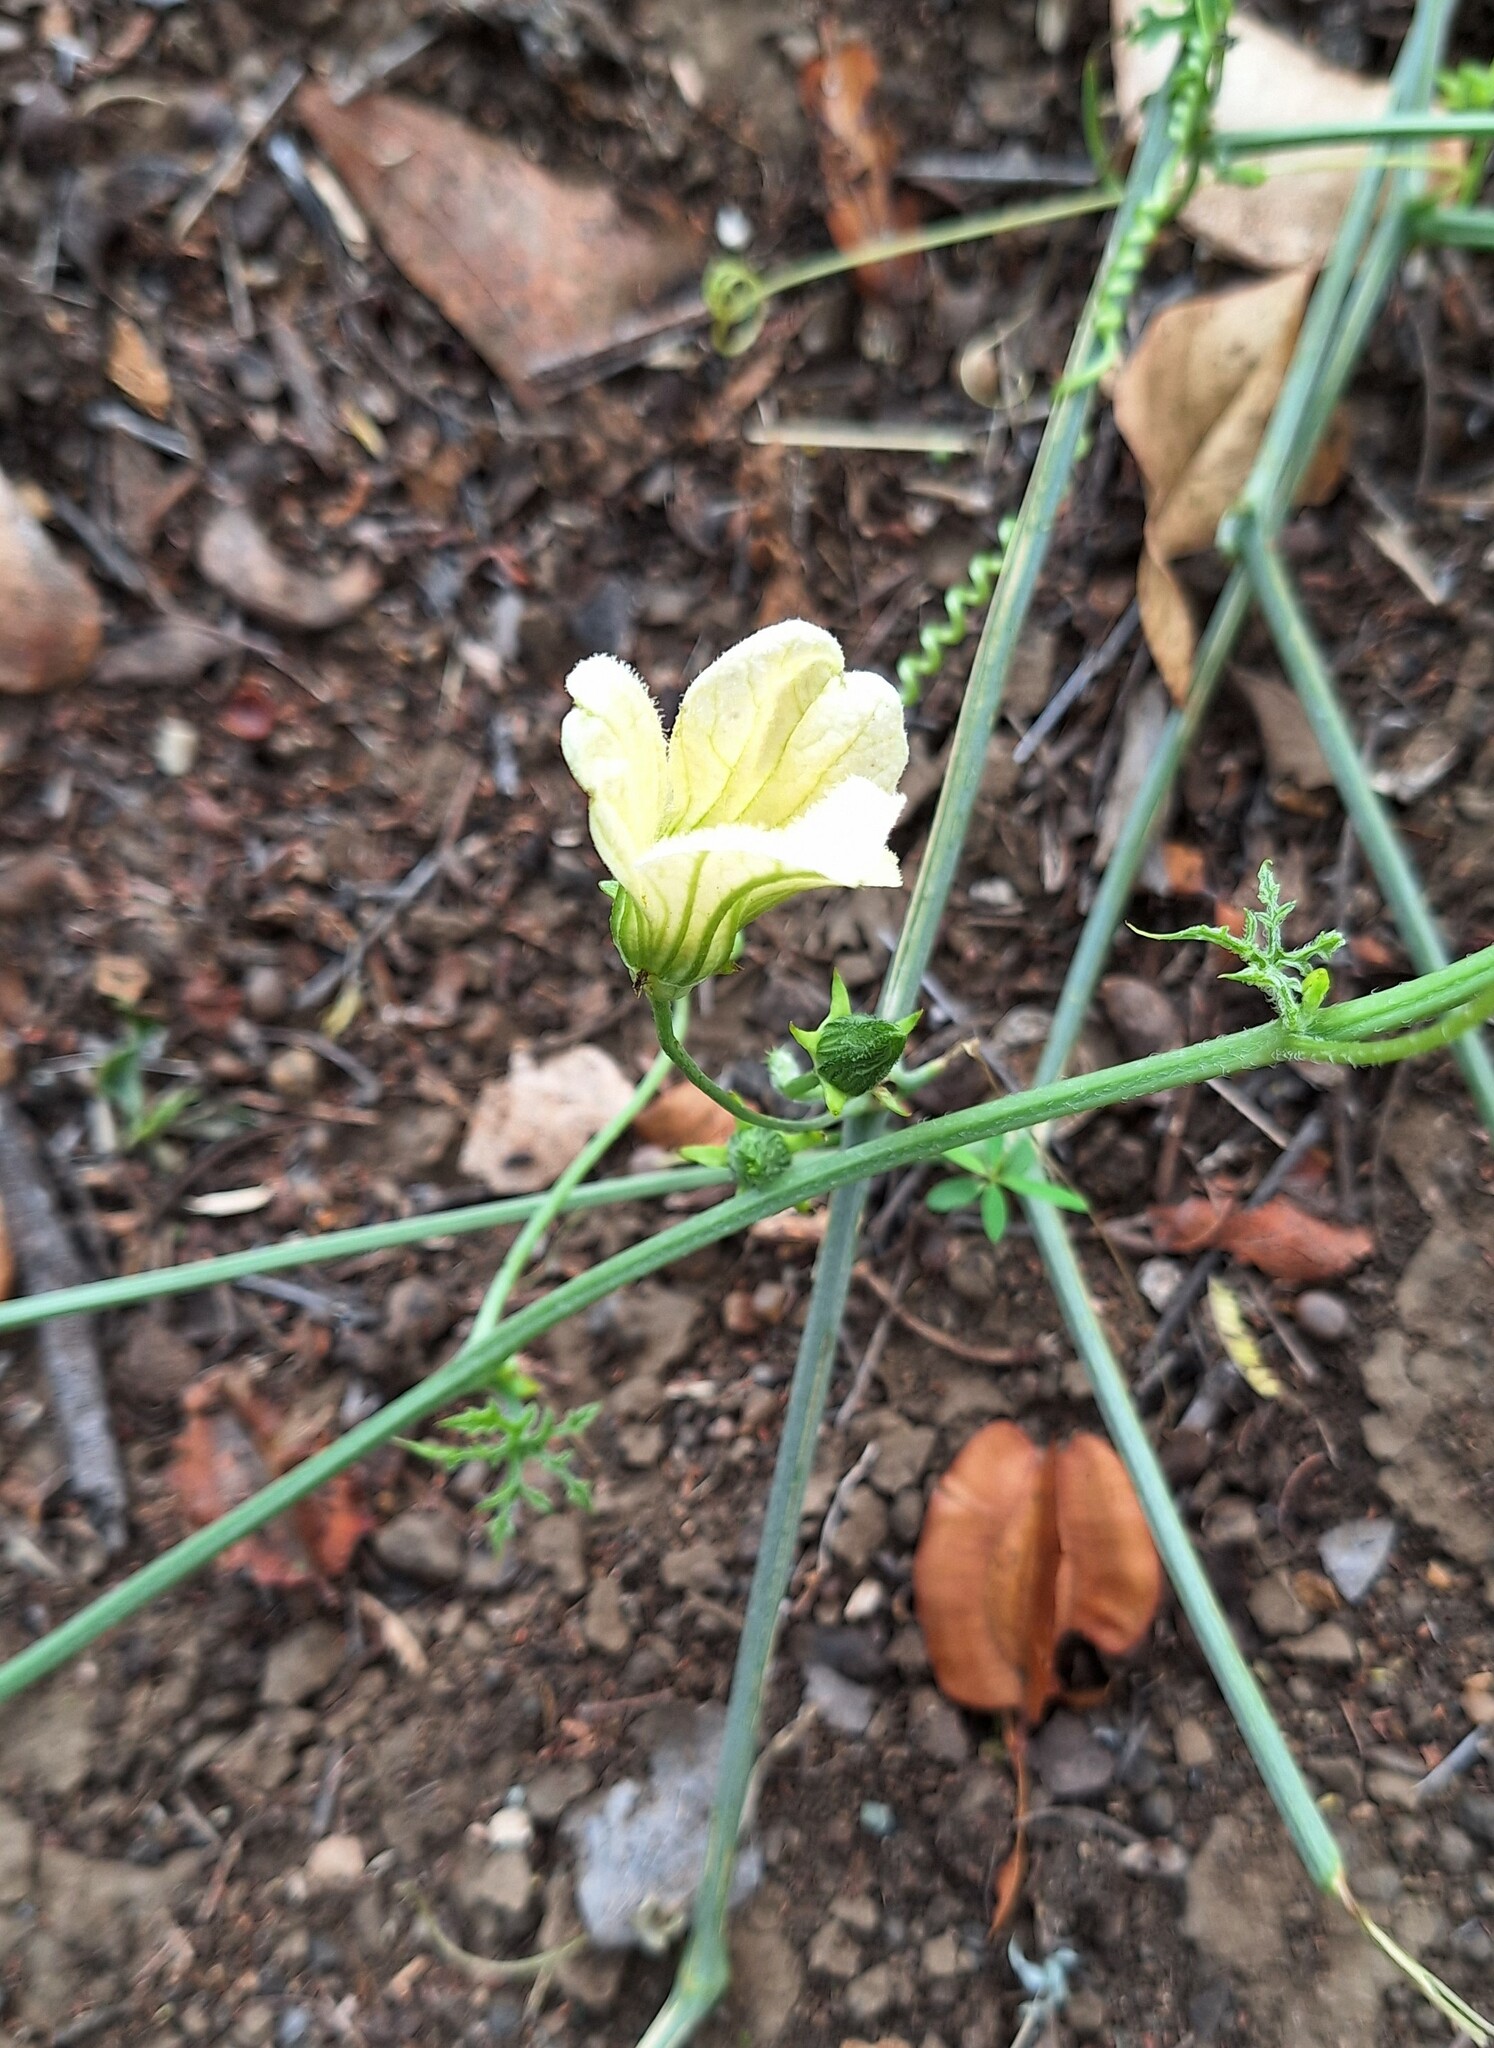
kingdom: Plantae
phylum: Tracheophyta
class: Magnoliopsida
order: Cucurbitales
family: Cucurbitaceae
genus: Coccinia
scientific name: Coccinia rehmannii
